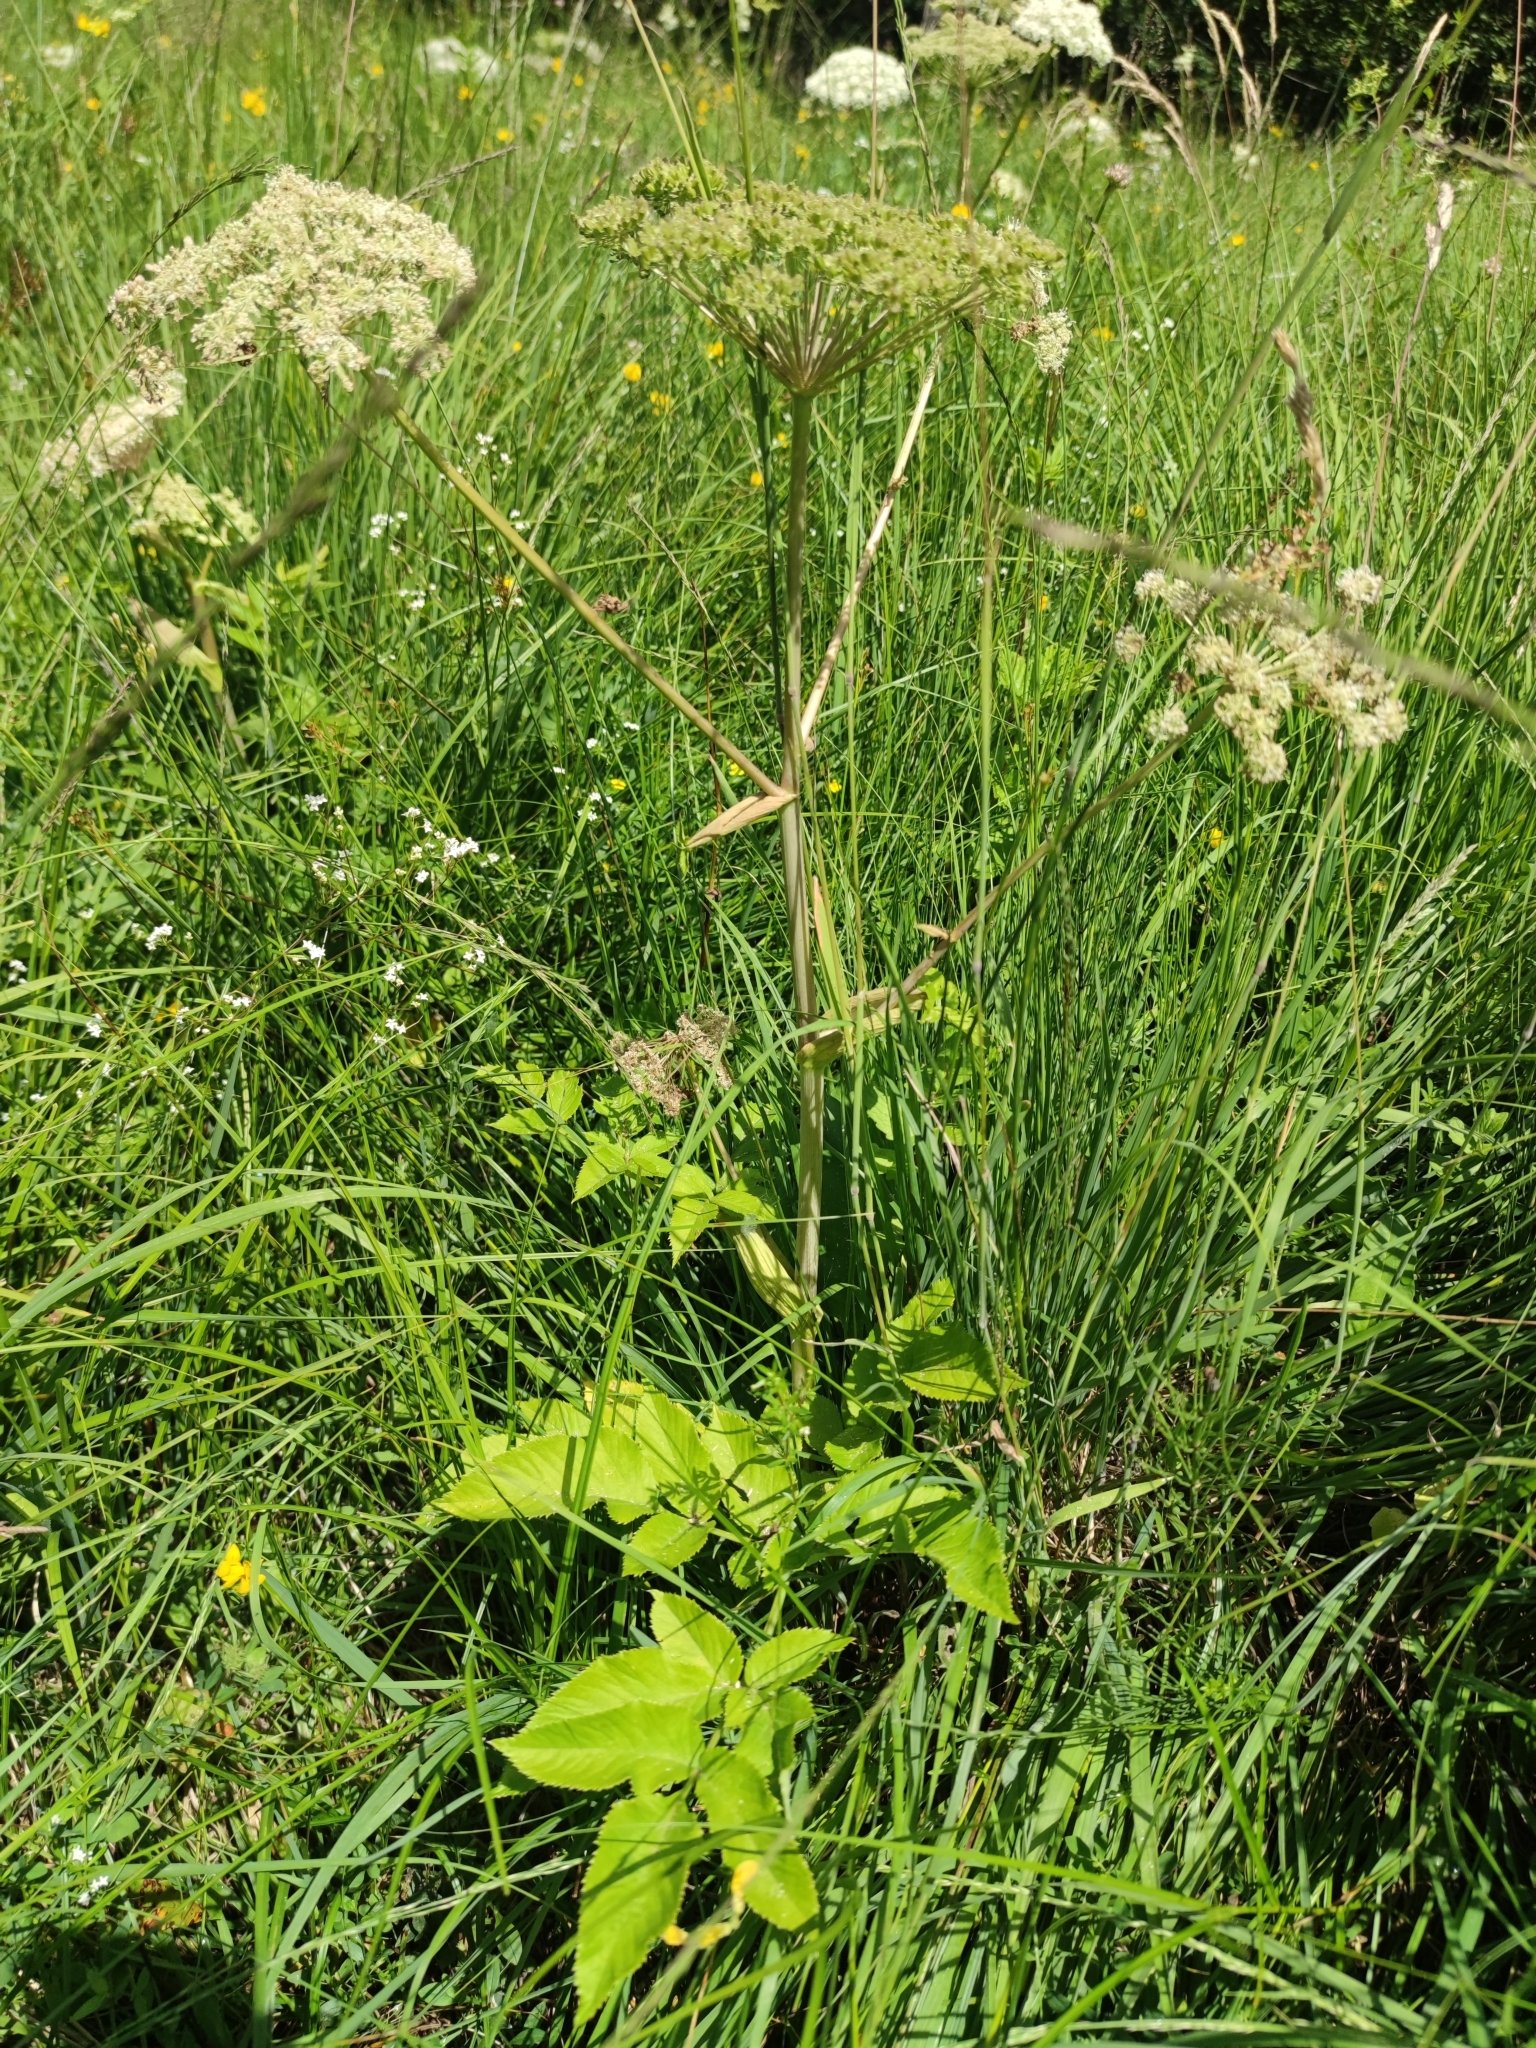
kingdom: Plantae
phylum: Tracheophyta
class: Magnoliopsida
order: Apiales
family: Apiaceae
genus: Angelica
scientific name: Angelica sylvestris
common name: Wild angelica
